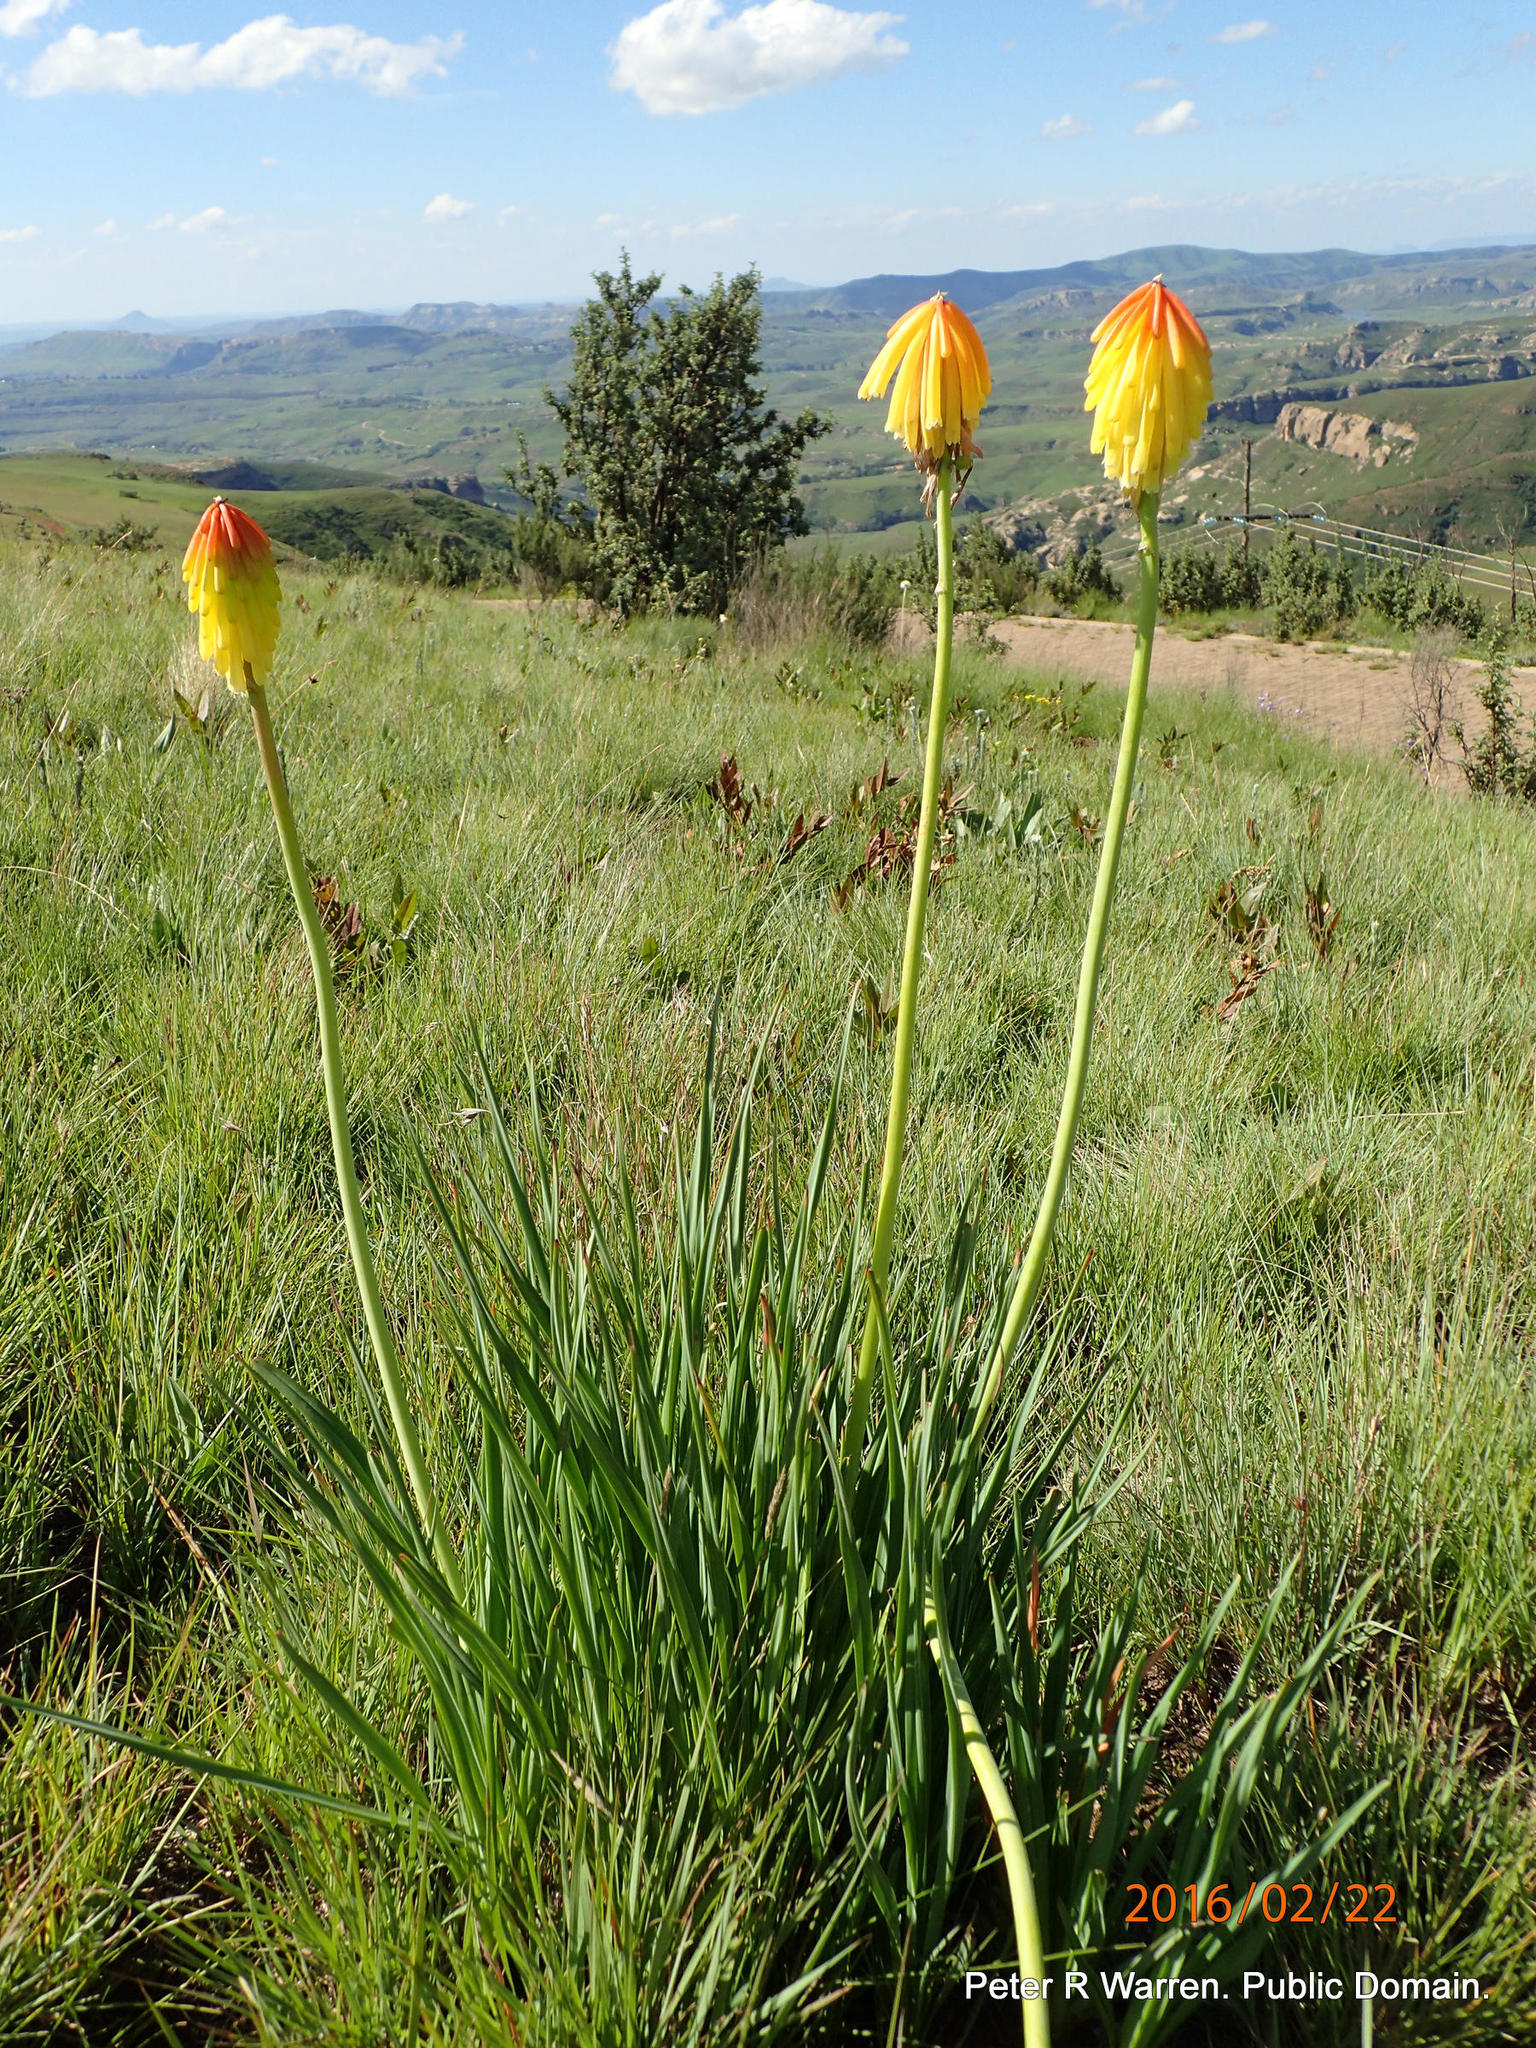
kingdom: Plantae
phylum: Tracheophyta
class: Liliopsida
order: Asparagales
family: Asphodelaceae
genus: Kniphofia
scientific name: Kniphofia porphyrantha
